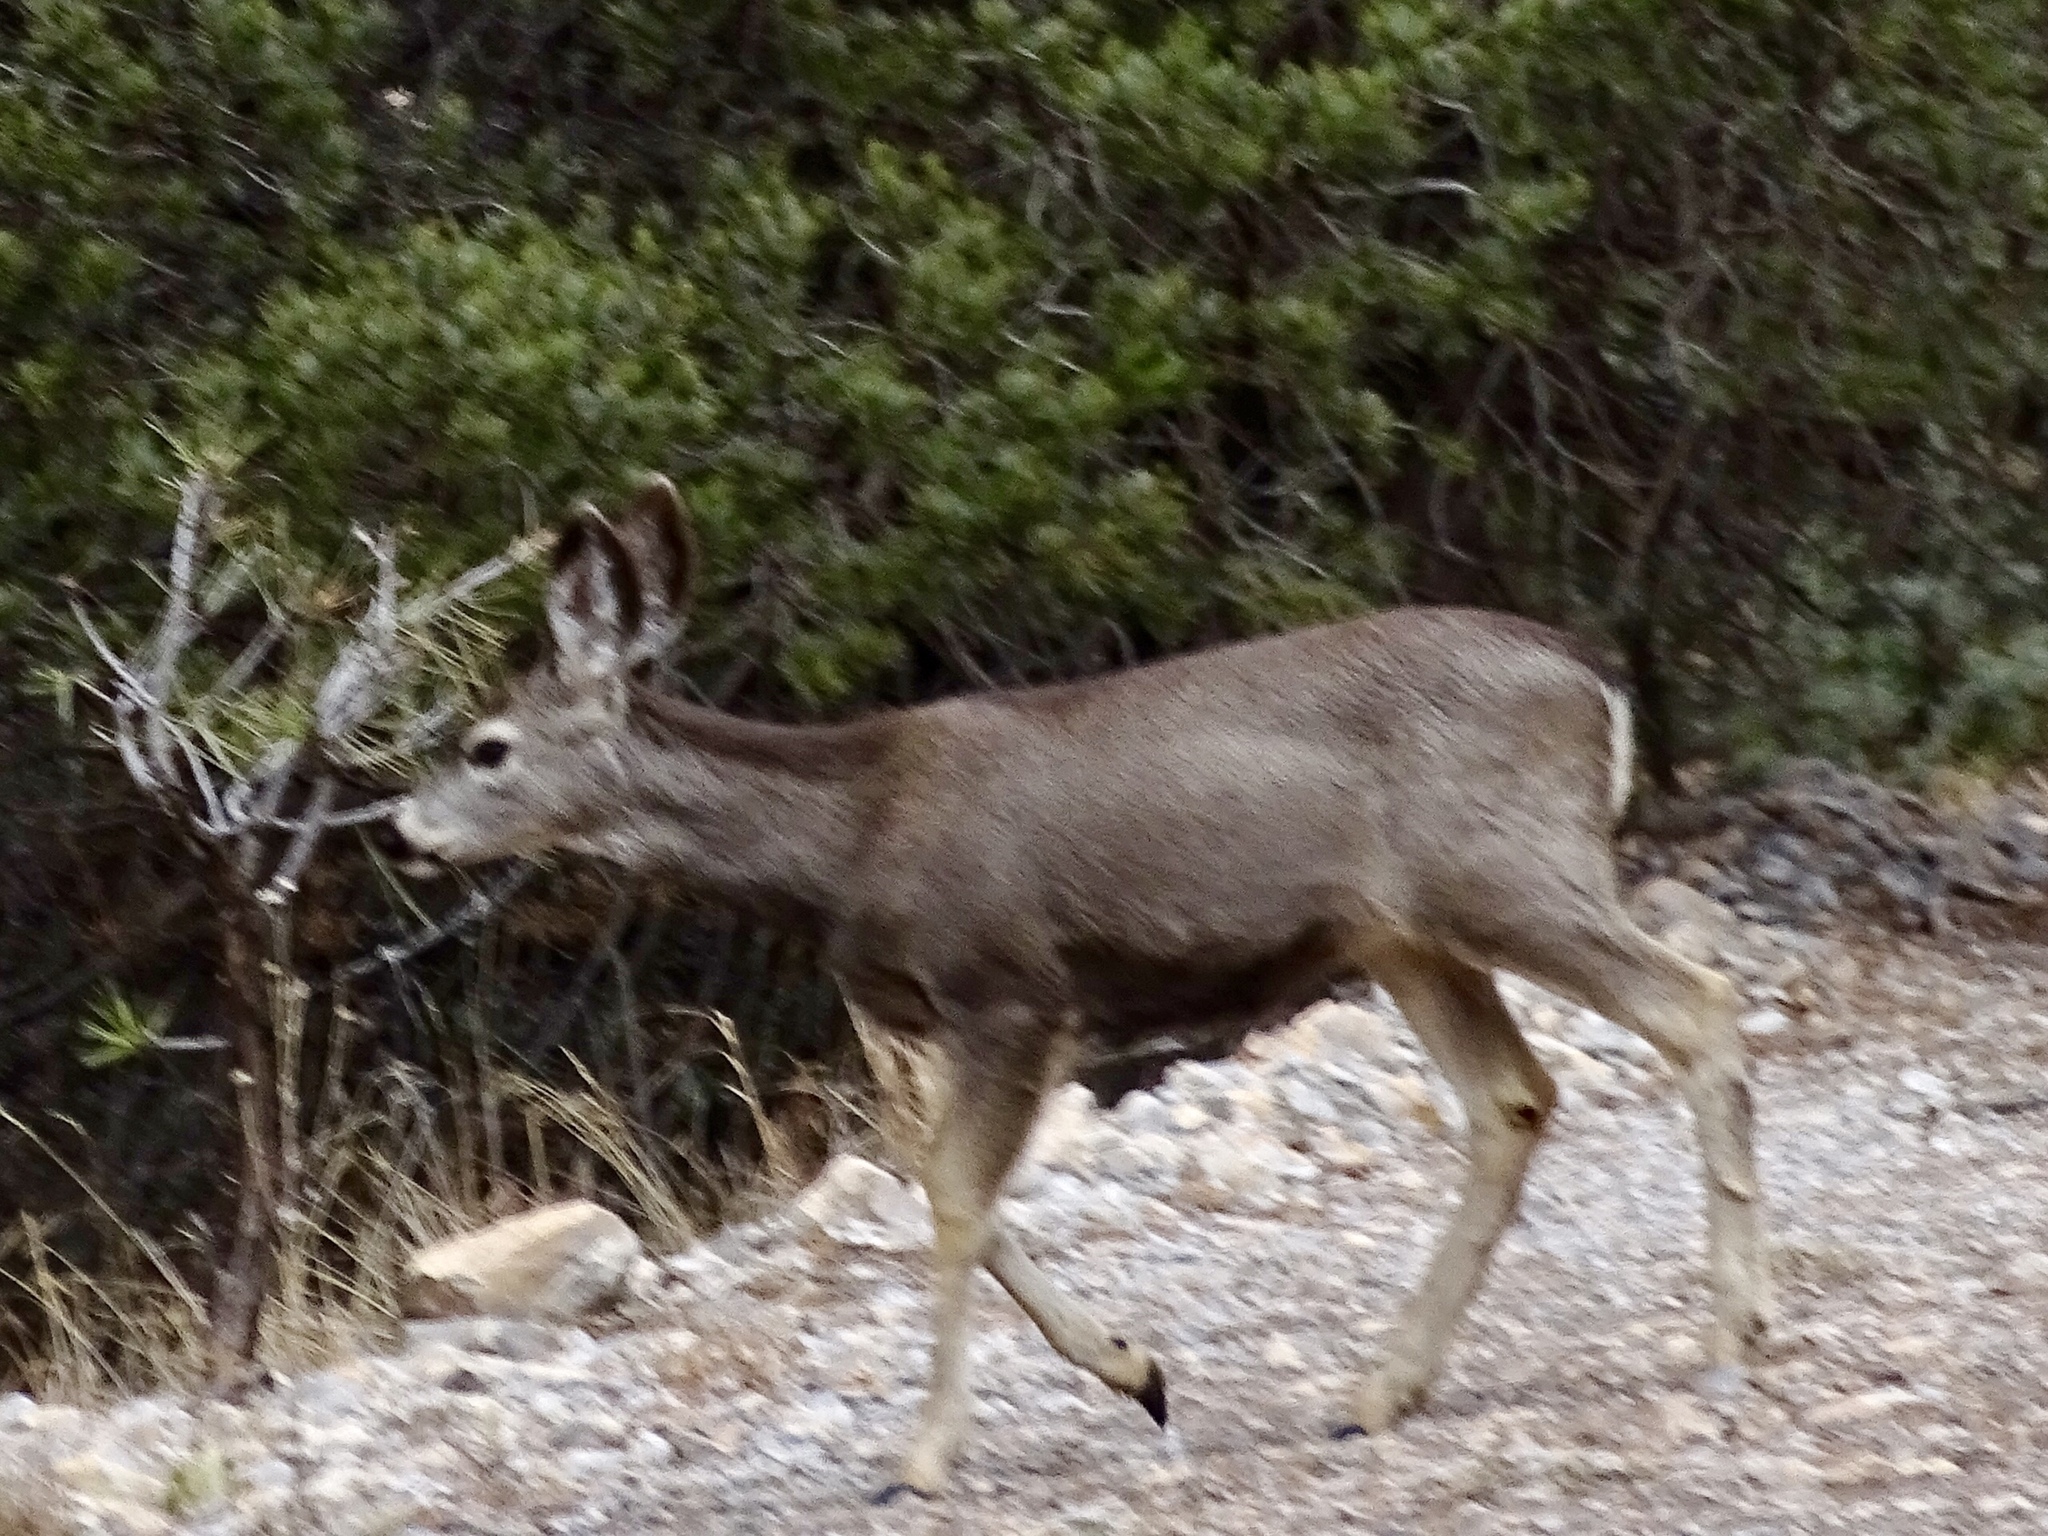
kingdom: Animalia
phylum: Chordata
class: Mammalia
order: Artiodactyla
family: Cervidae
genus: Odocoileus
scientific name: Odocoileus hemionus
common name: Mule deer
